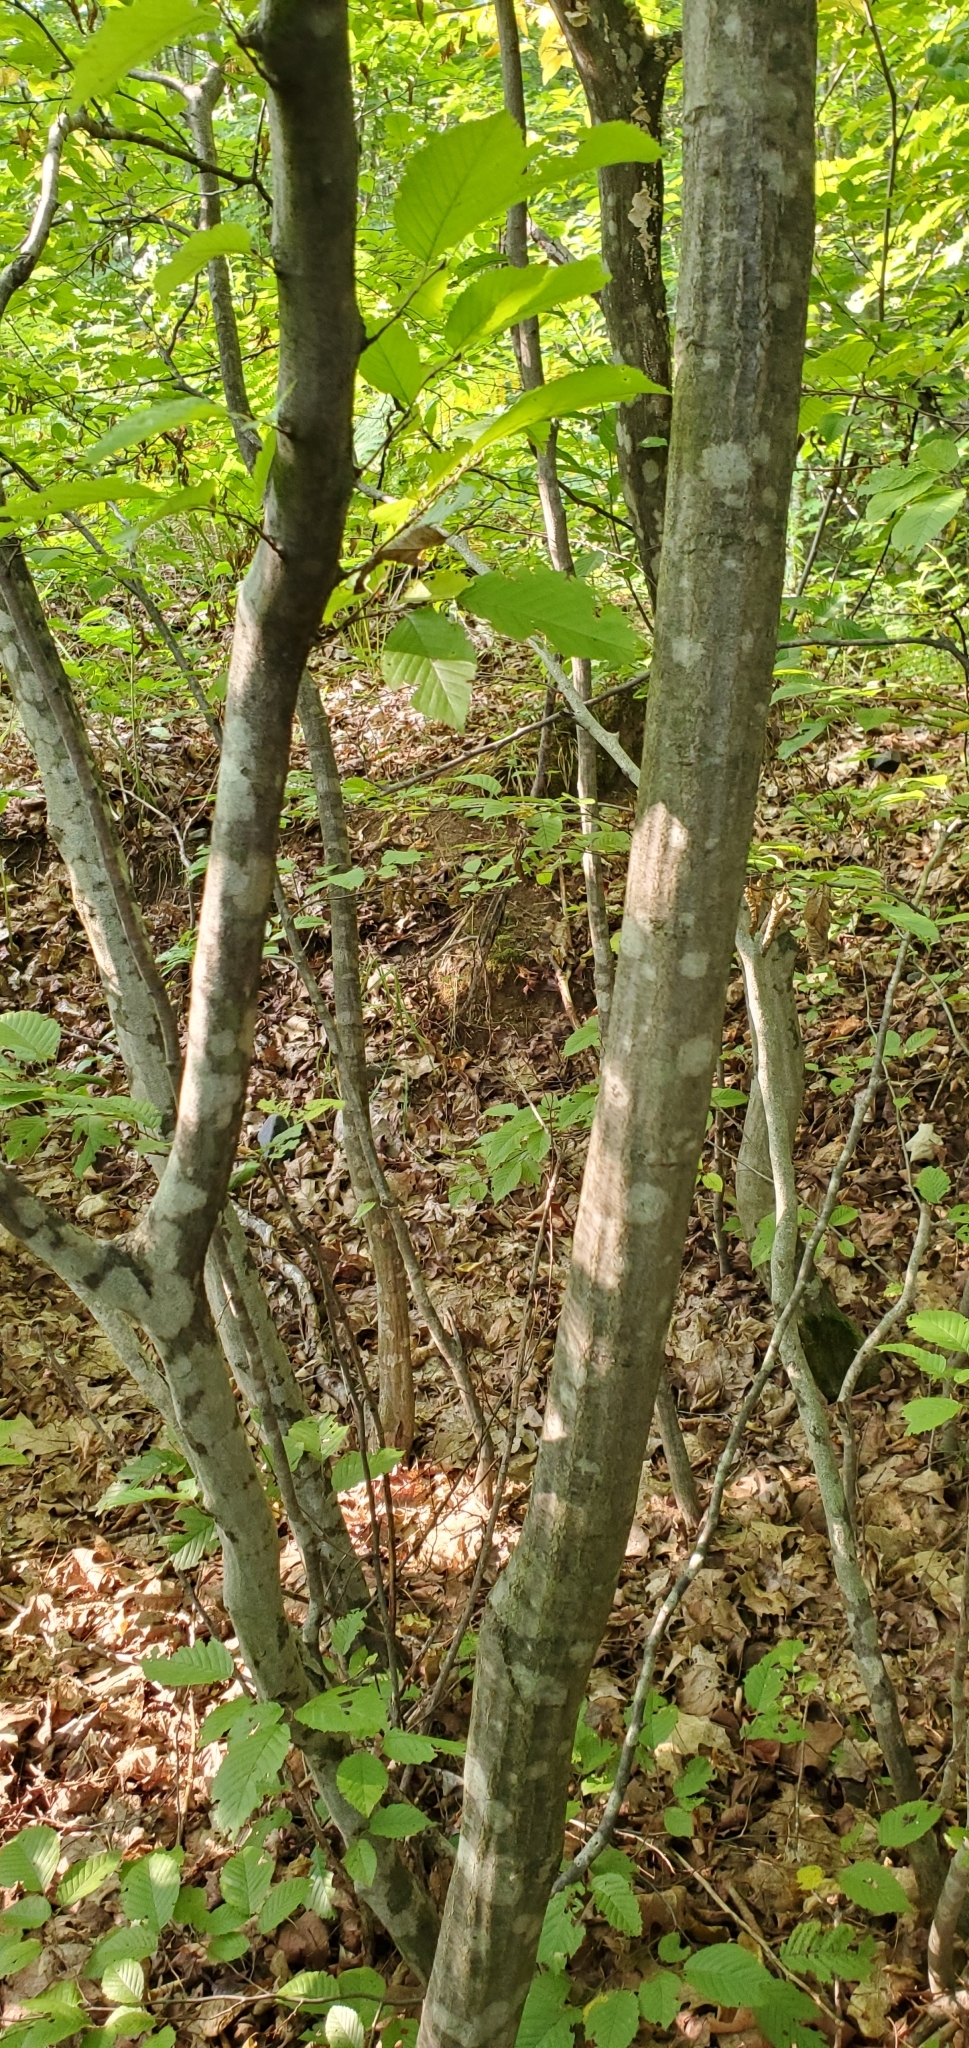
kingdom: Plantae
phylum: Tracheophyta
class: Magnoliopsida
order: Fagales
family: Betulaceae
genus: Carpinus
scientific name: Carpinus caroliniana
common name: American hornbeam
